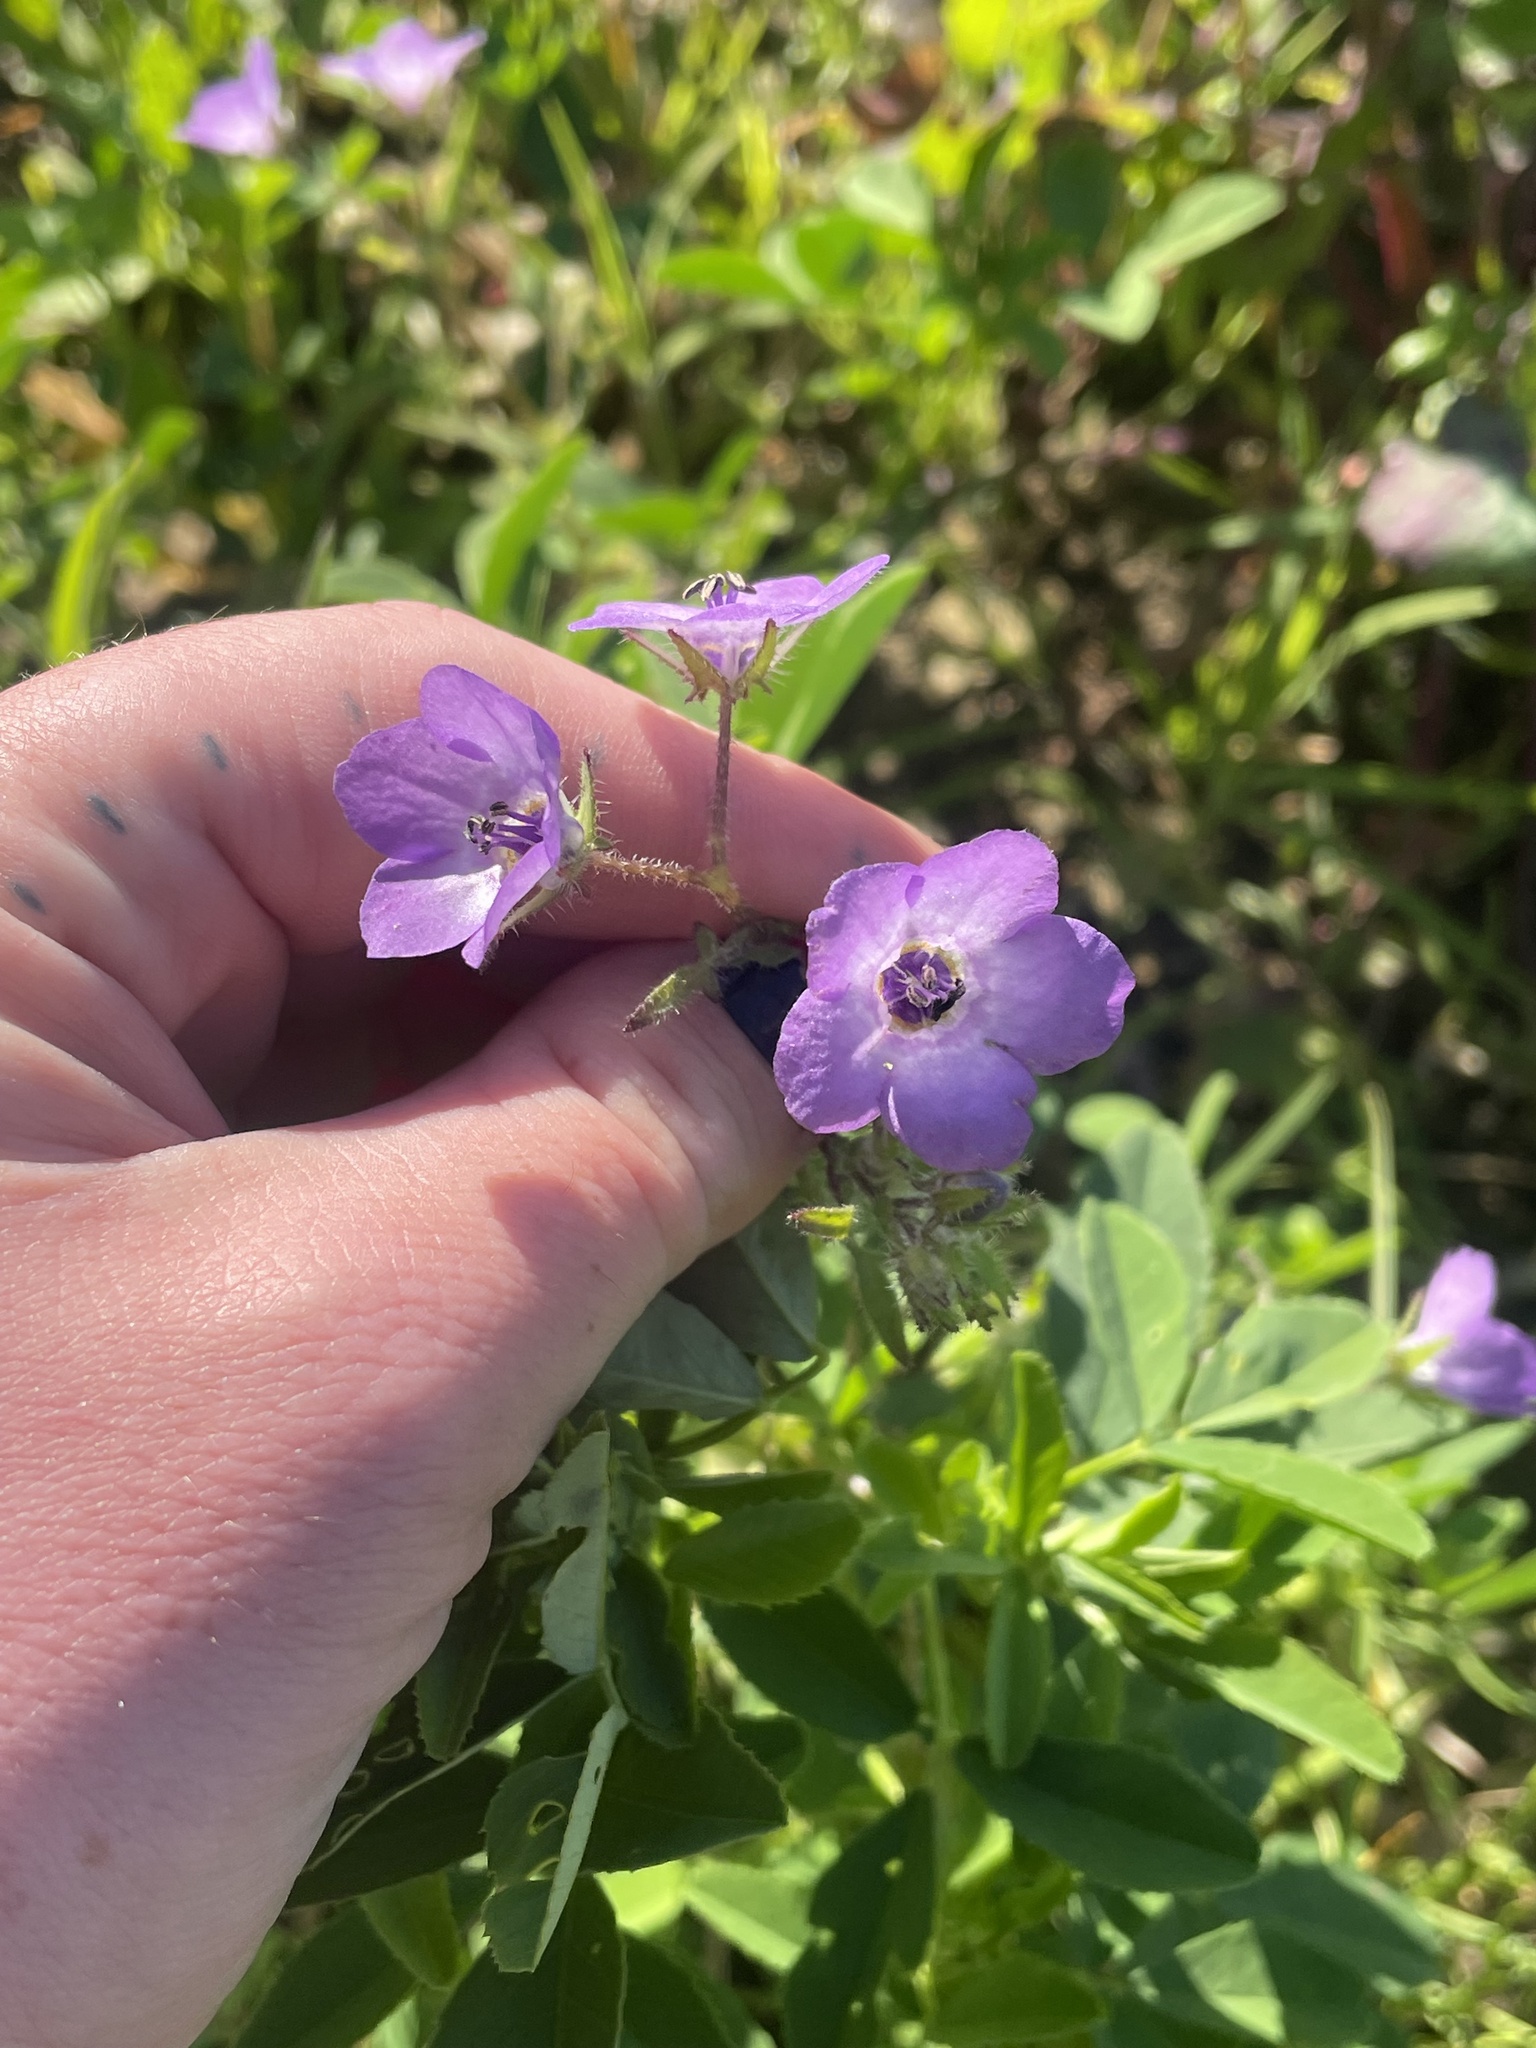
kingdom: Plantae
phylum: Tracheophyta
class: Magnoliopsida
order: Boraginales
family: Hydrophyllaceae
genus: Pholistoma
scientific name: Pholistoma auritum
